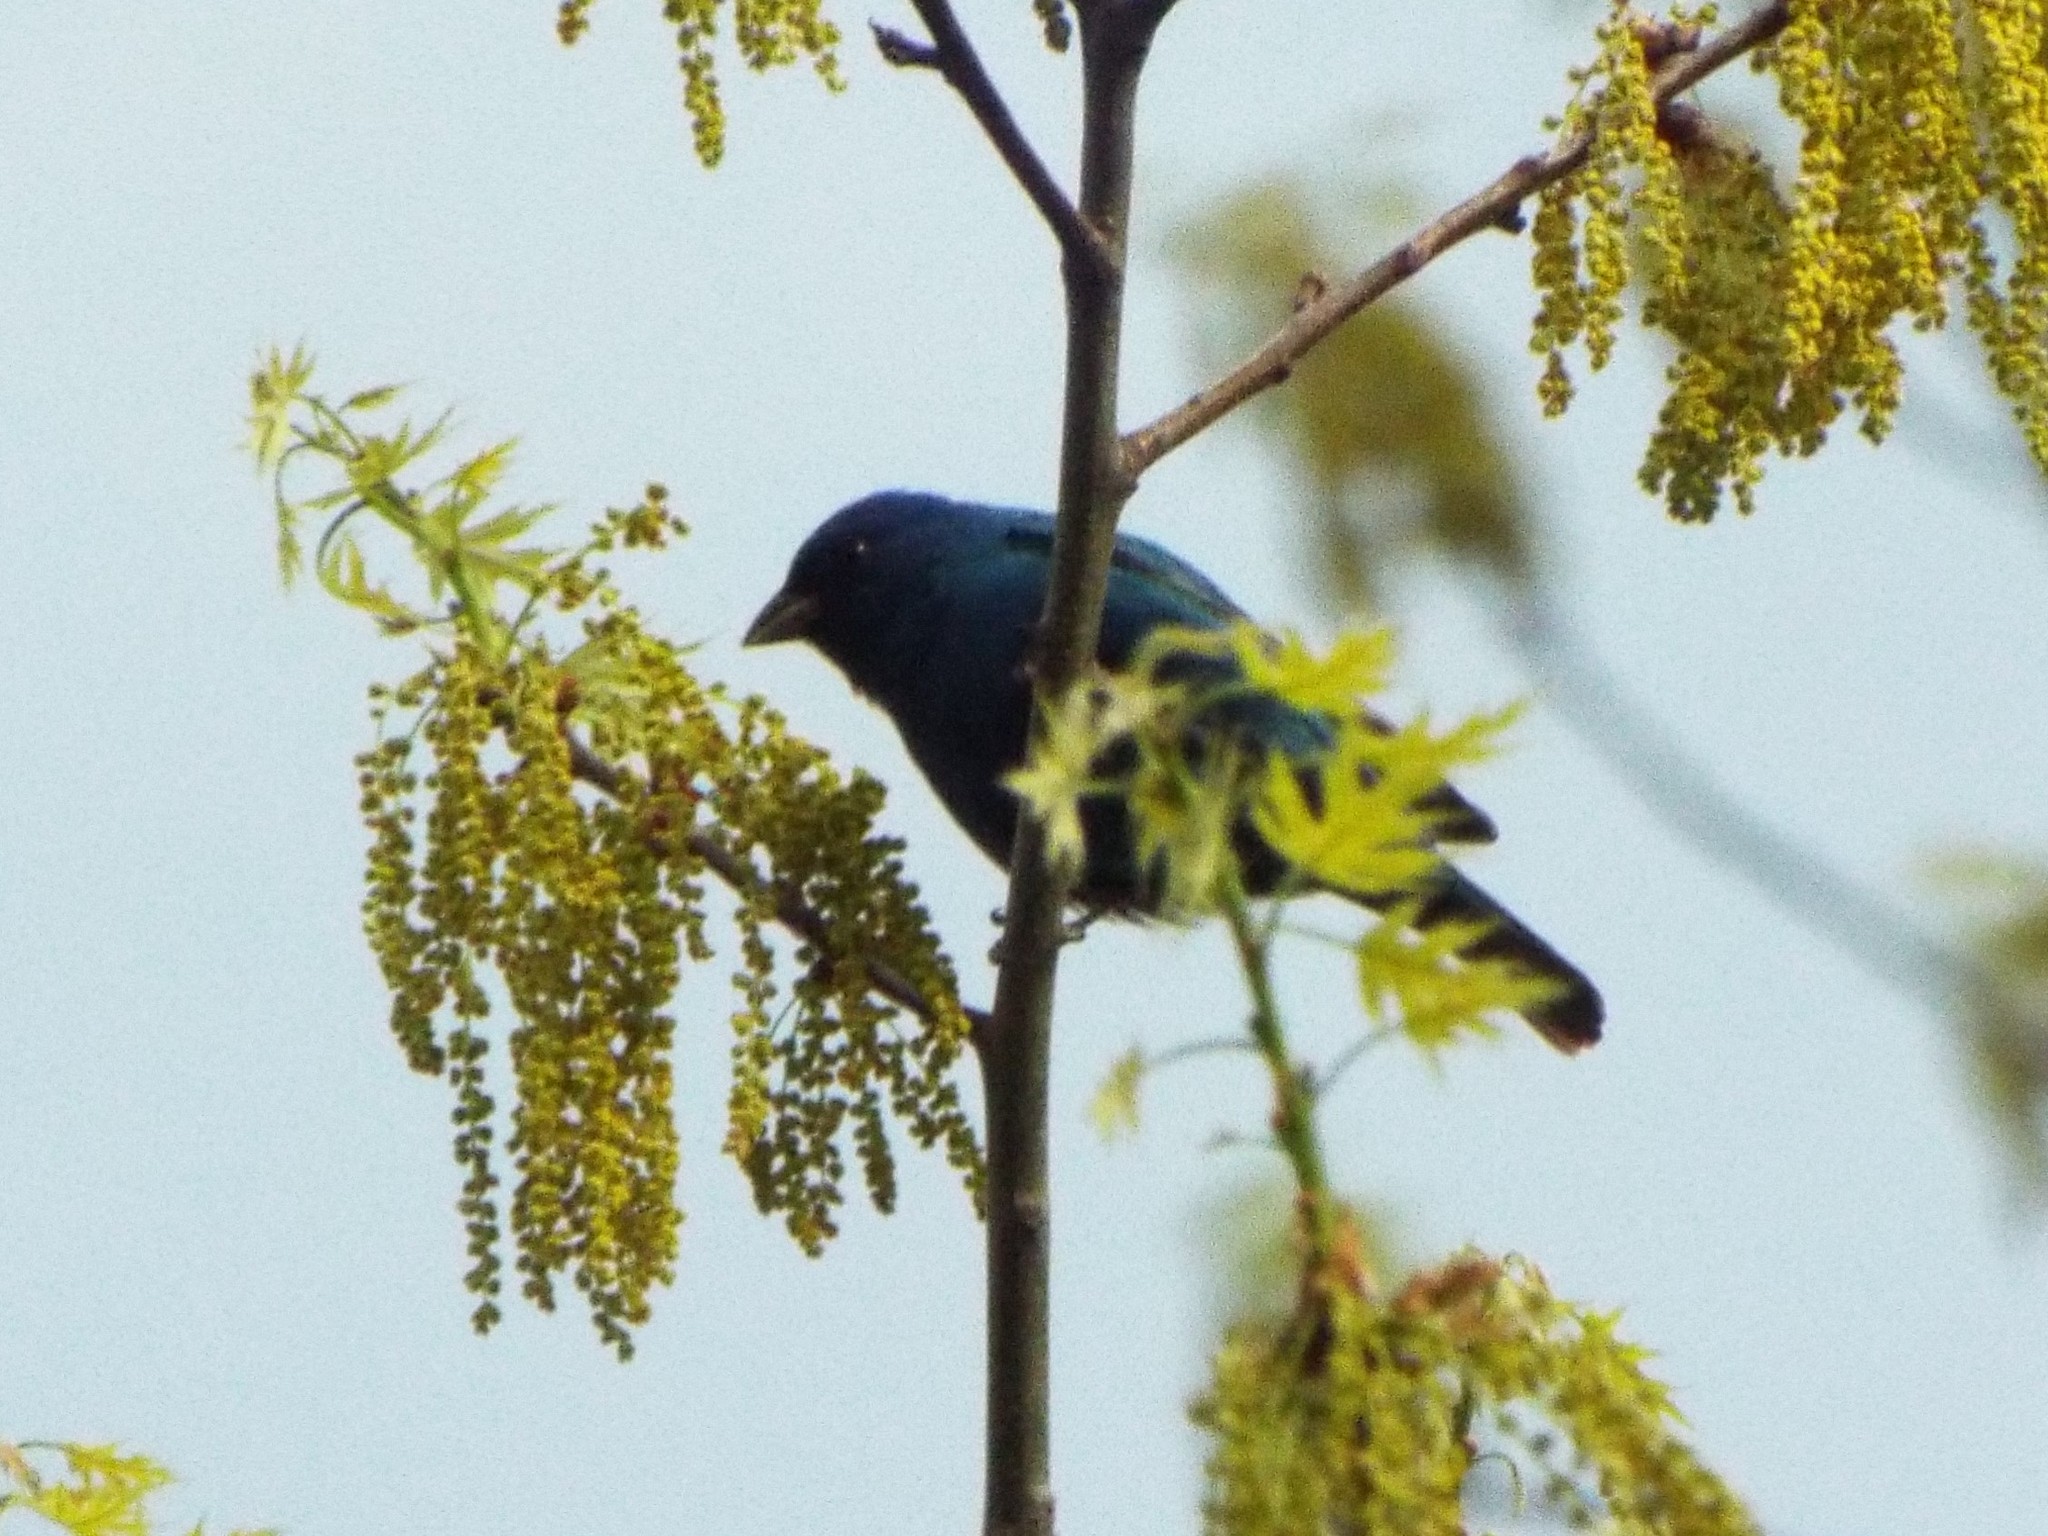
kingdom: Animalia
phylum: Chordata
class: Aves
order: Passeriformes
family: Cardinalidae
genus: Passerina
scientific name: Passerina cyanea
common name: Indigo bunting
